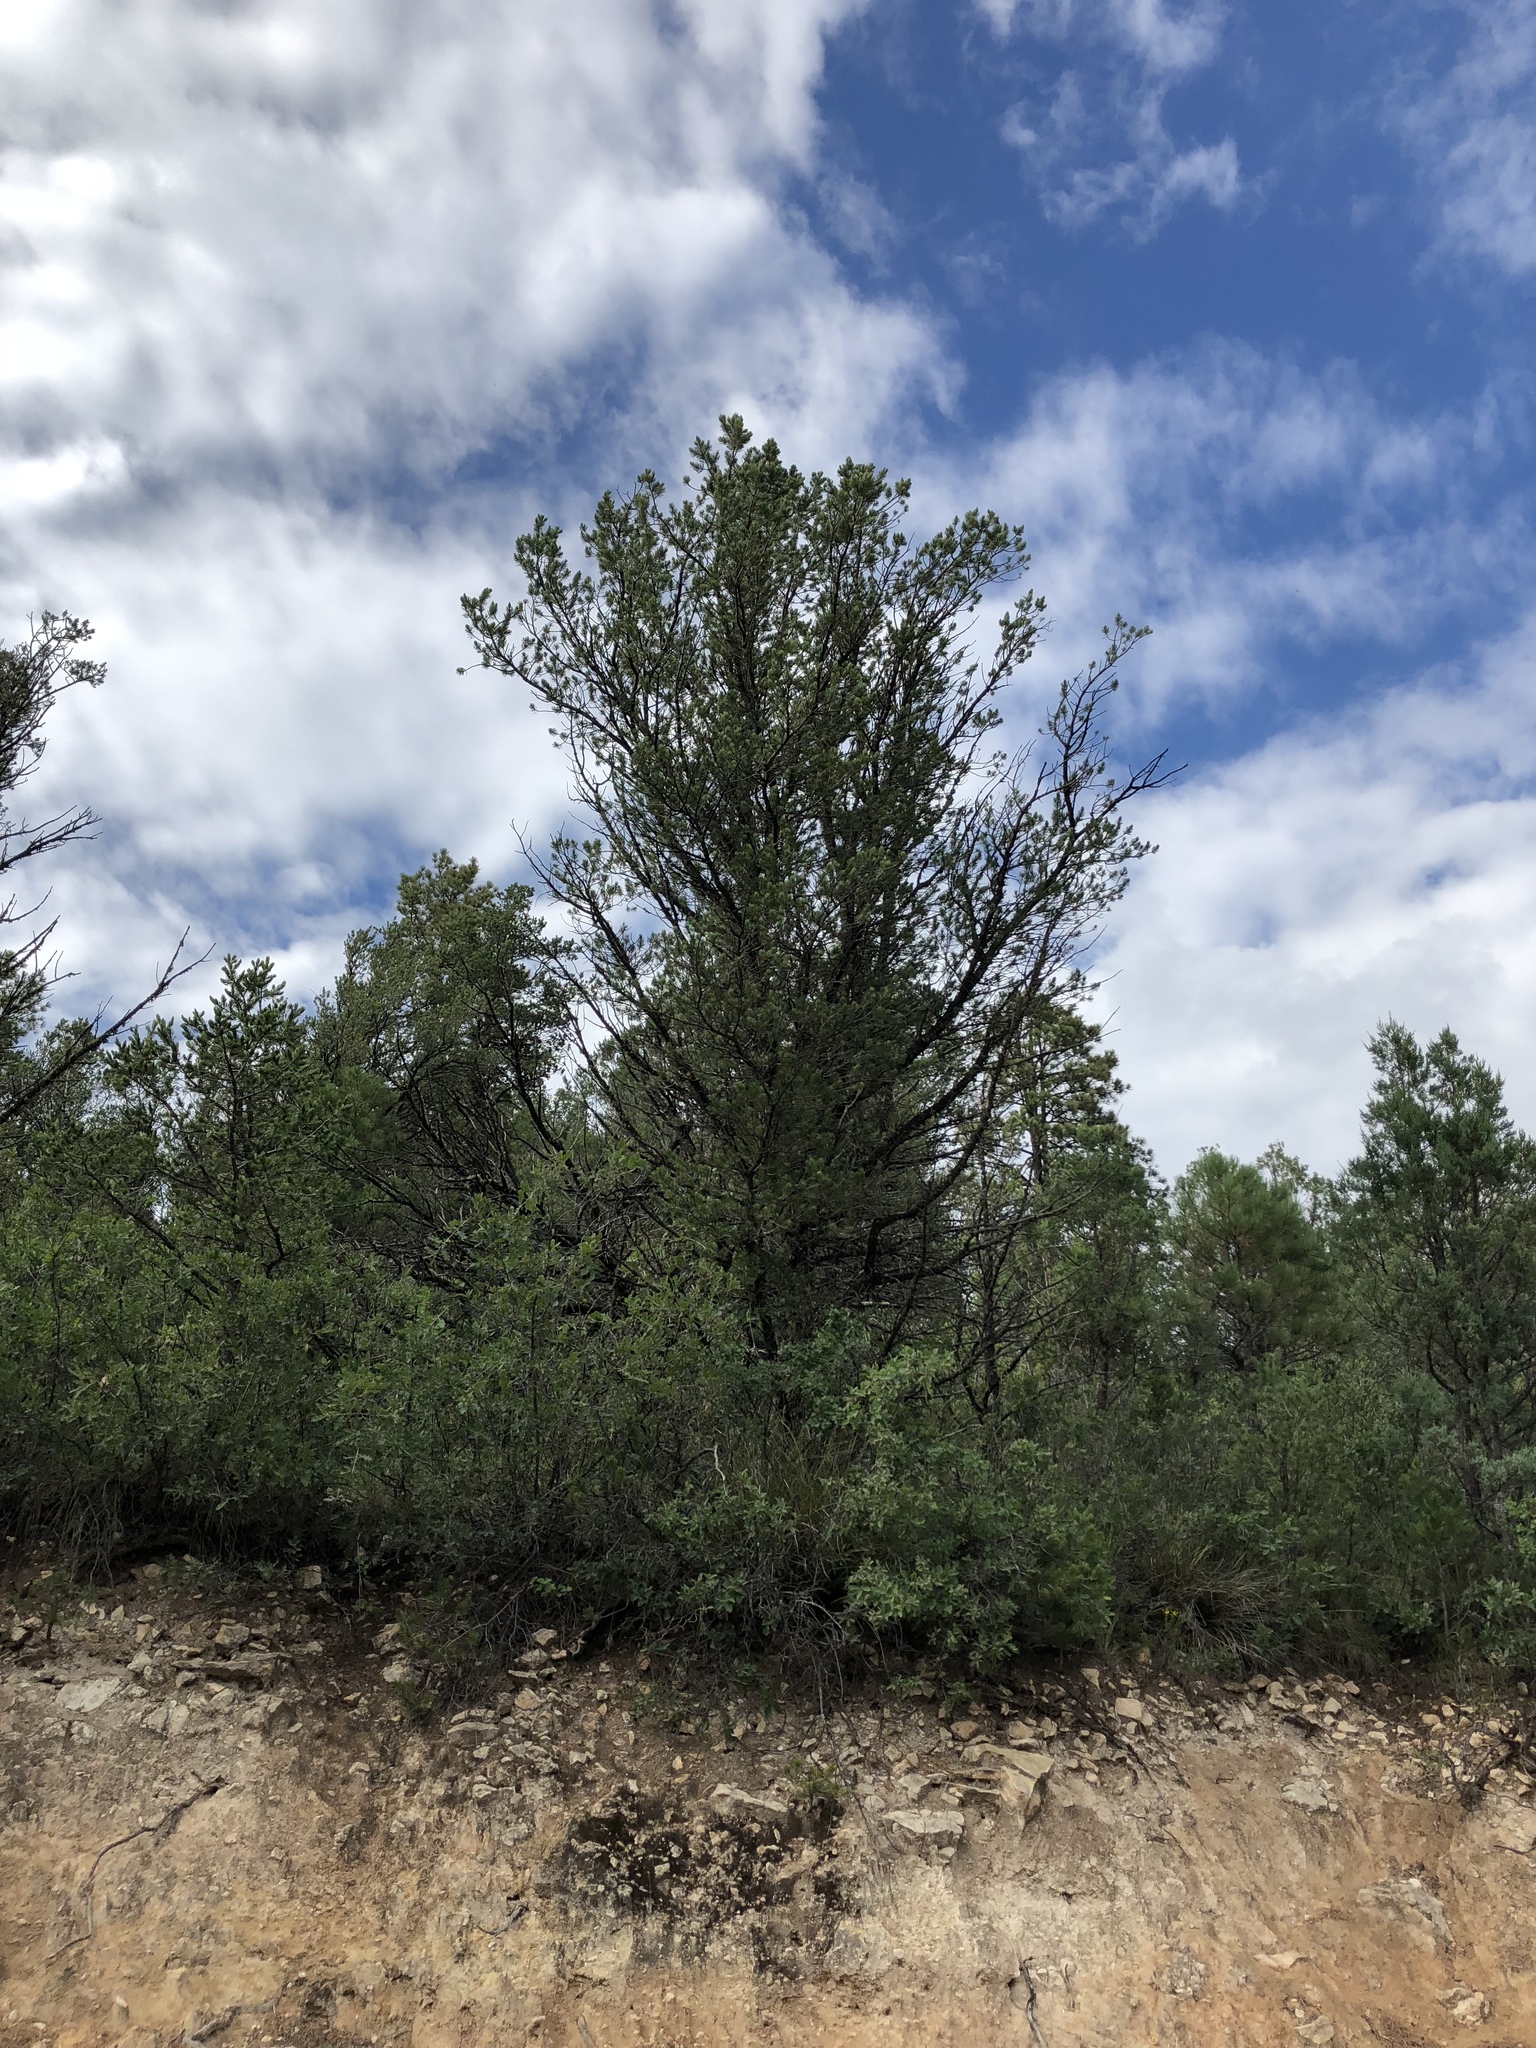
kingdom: Plantae
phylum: Tracheophyta
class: Pinopsida
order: Pinales
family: Pinaceae
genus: Pinus
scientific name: Pinus edulis
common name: Colorado pinyon
